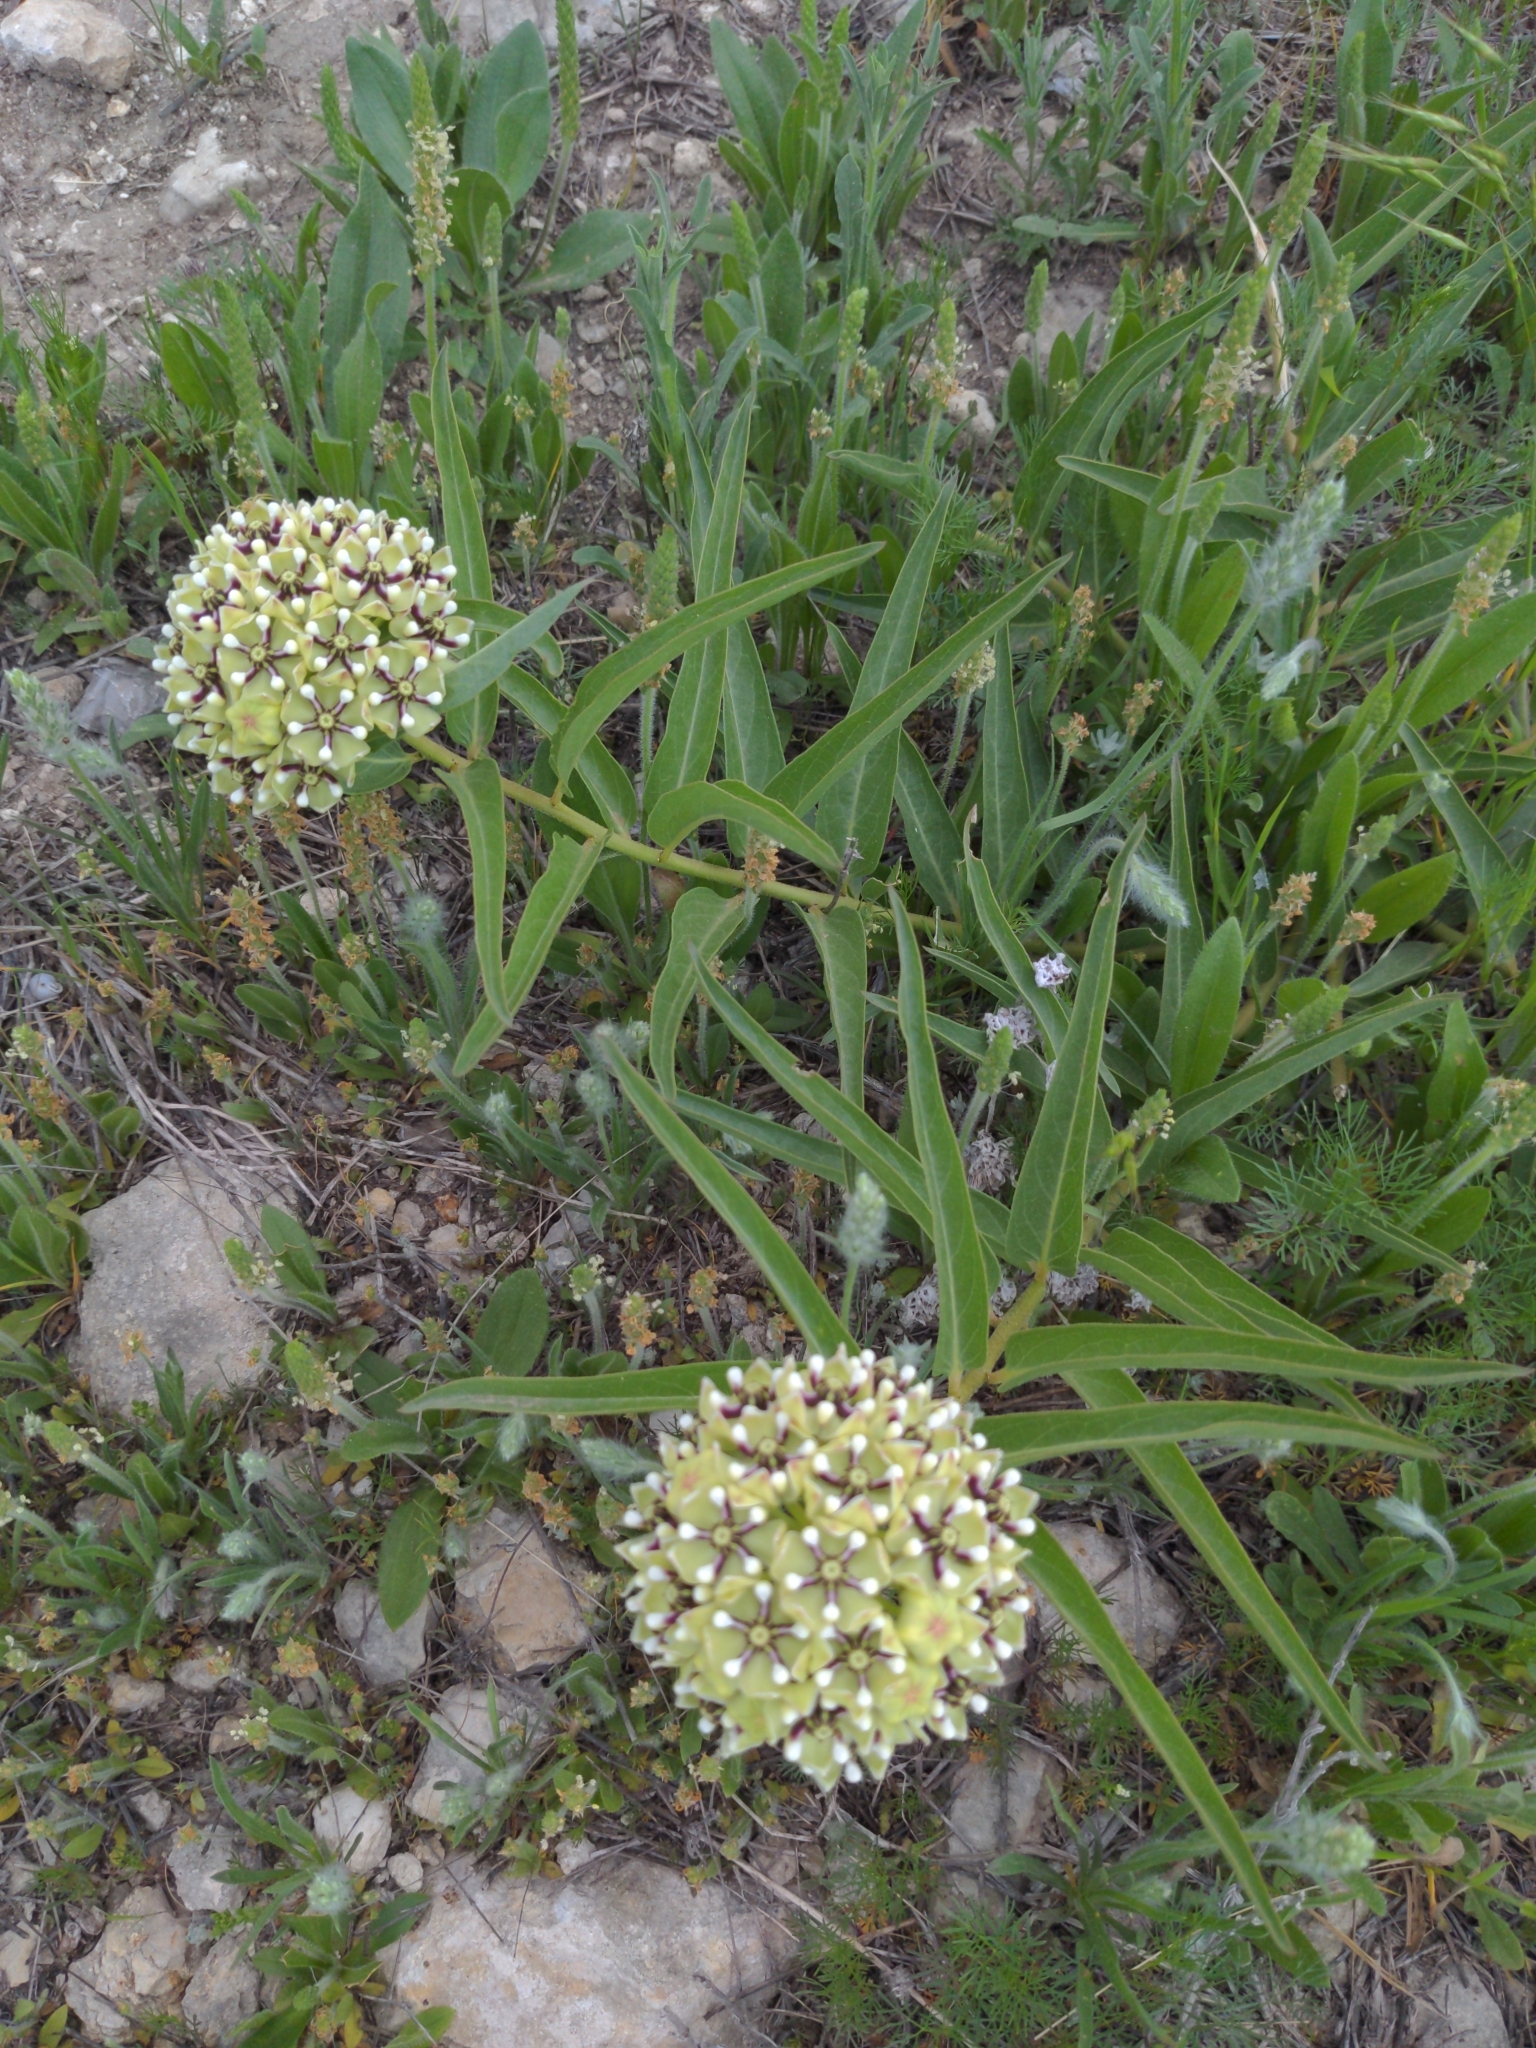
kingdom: Plantae
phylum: Tracheophyta
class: Magnoliopsida
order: Gentianales
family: Apocynaceae
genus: Asclepias
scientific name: Asclepias asperula
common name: Antelope horns
